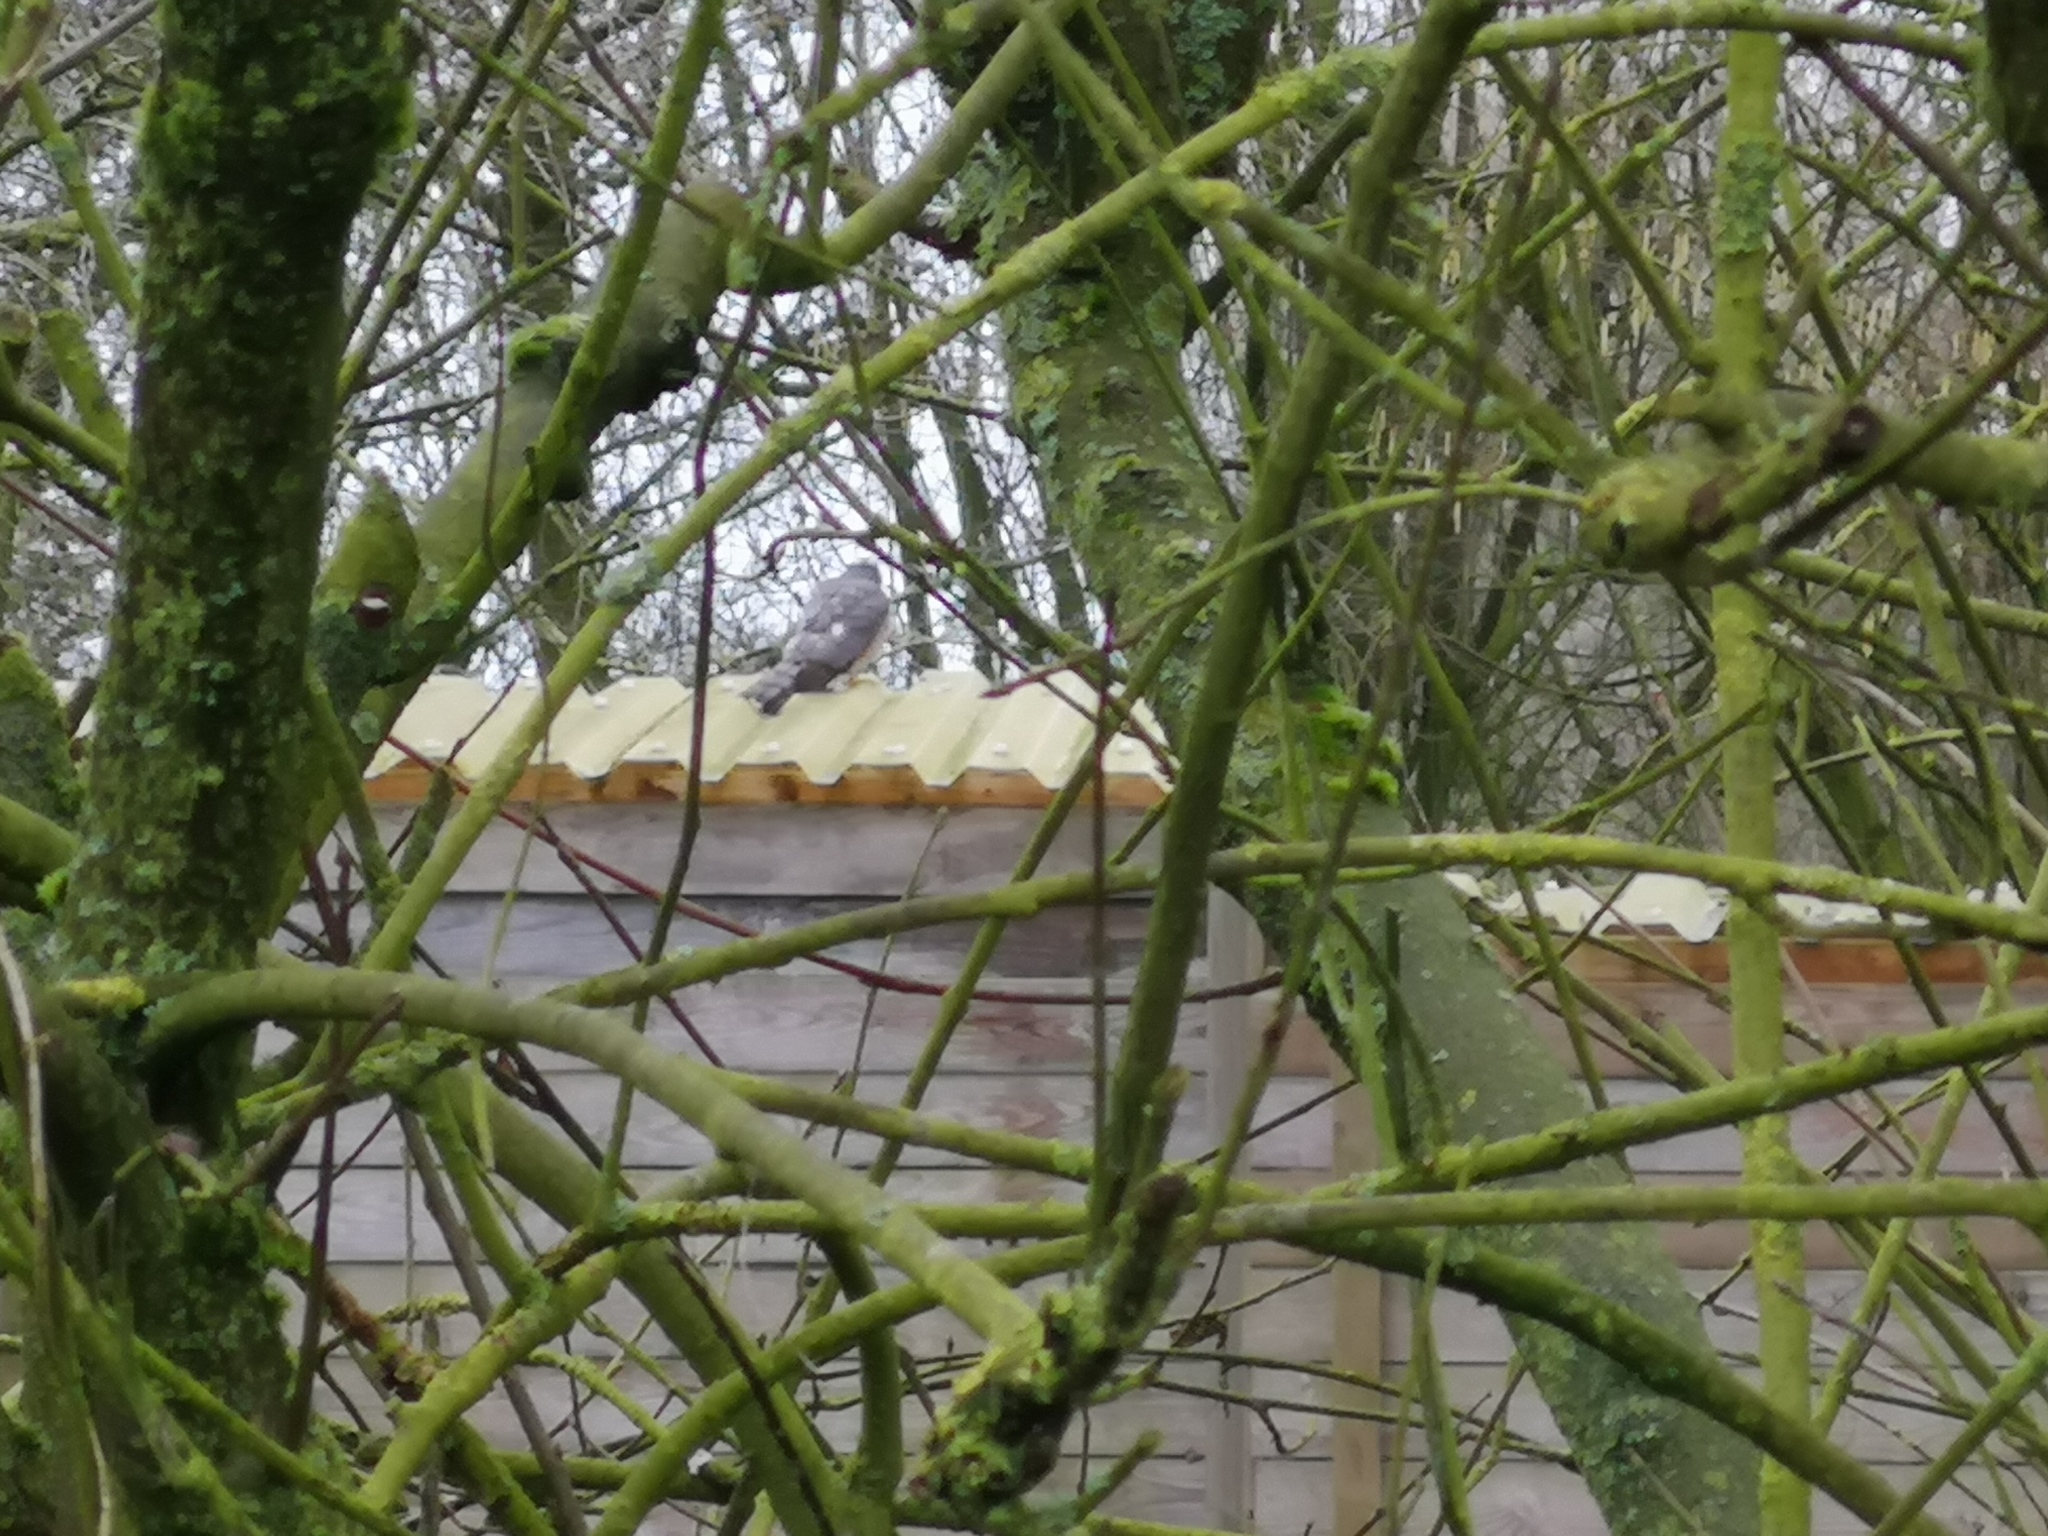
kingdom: Animalia
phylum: Chordata
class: Aves
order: Accipitriformes
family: Accipitridae
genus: Accipiter
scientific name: Accipiter nisus
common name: Eurasian sparrowhawk
